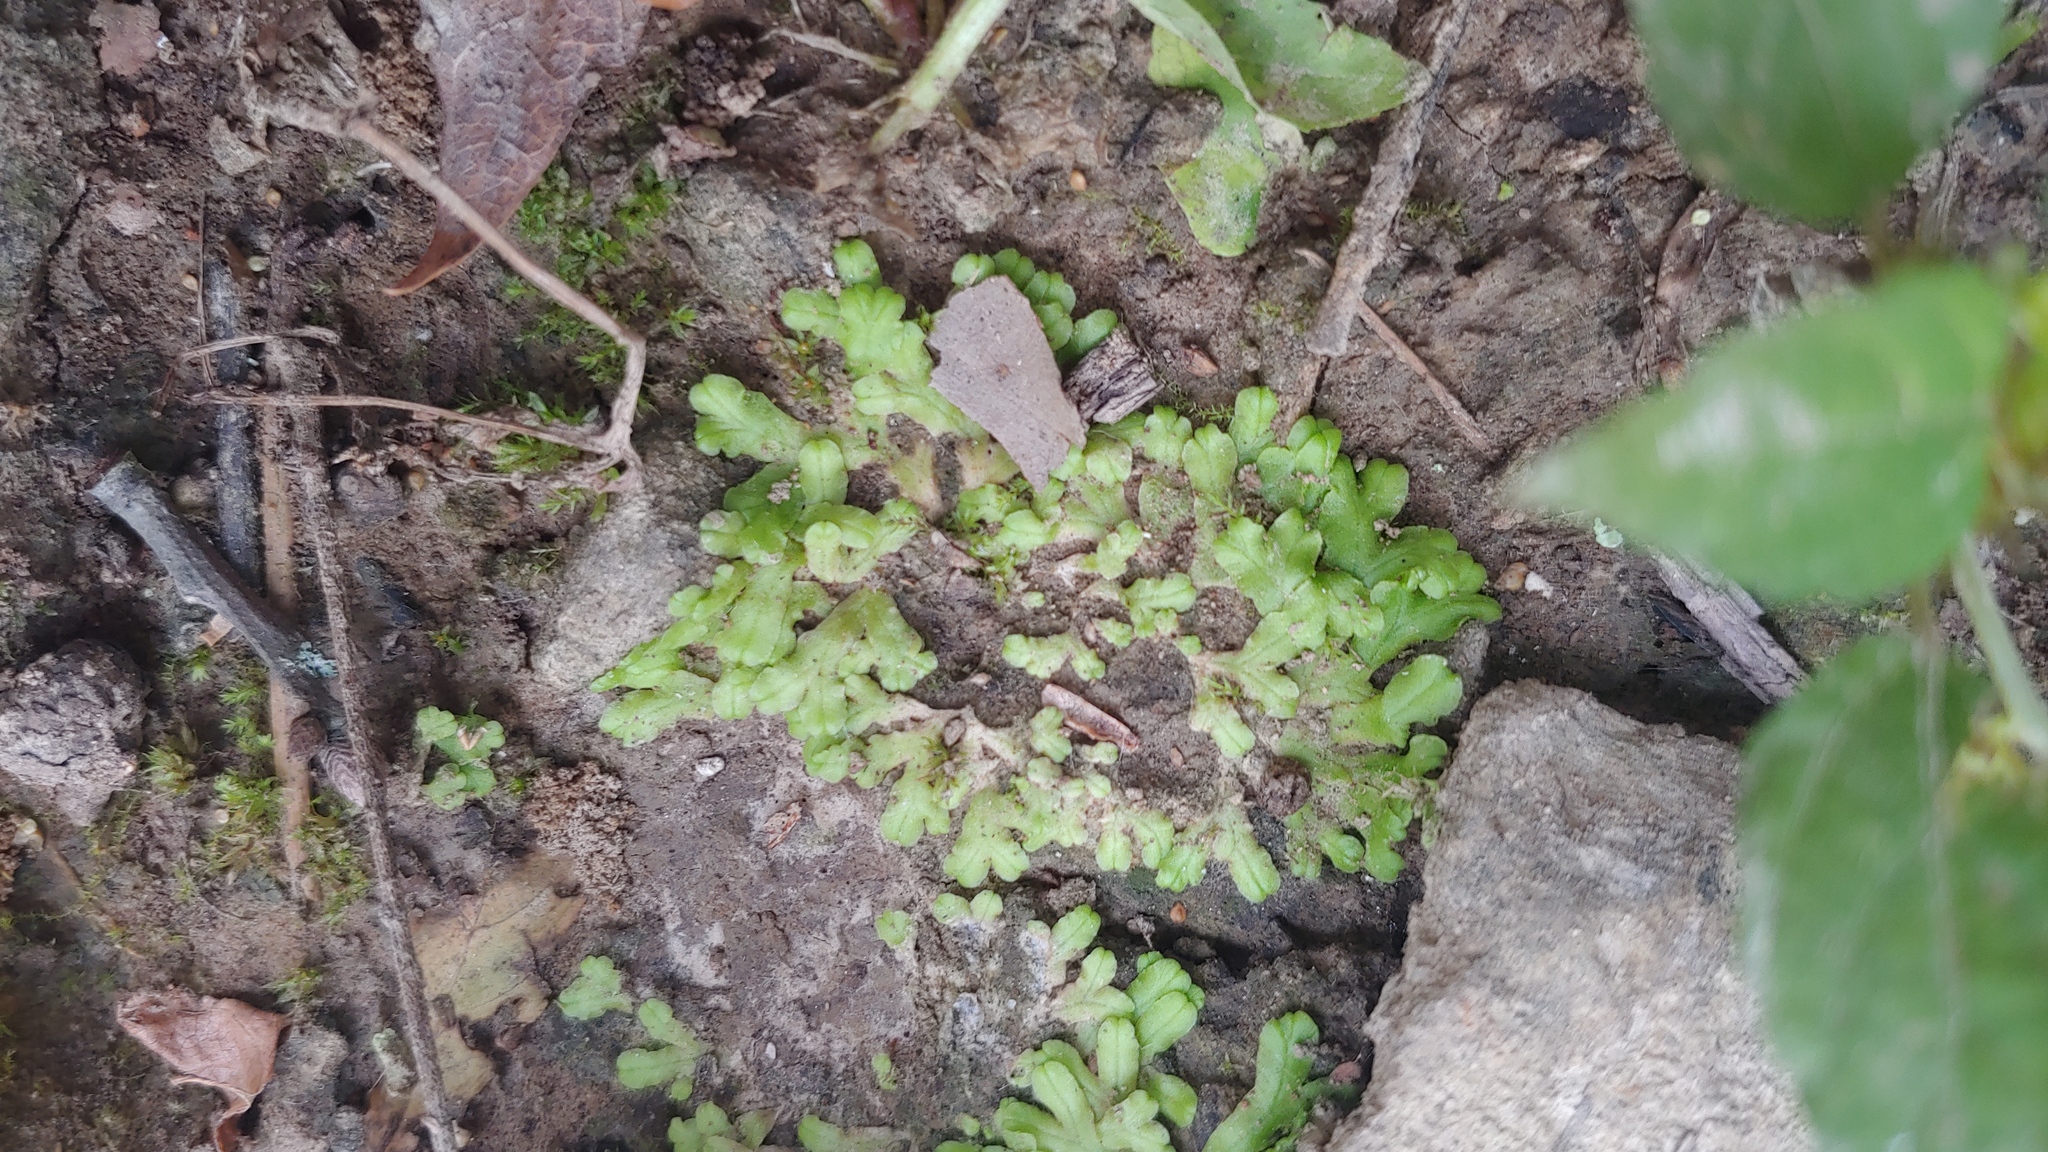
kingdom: Plantae
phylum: Marchantiophyta
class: Marchantiopsida
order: Marchantiales
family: Ricciaceae
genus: Ricciocarpos
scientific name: Ricciocarpos natans
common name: Purple-fringed liverwort
